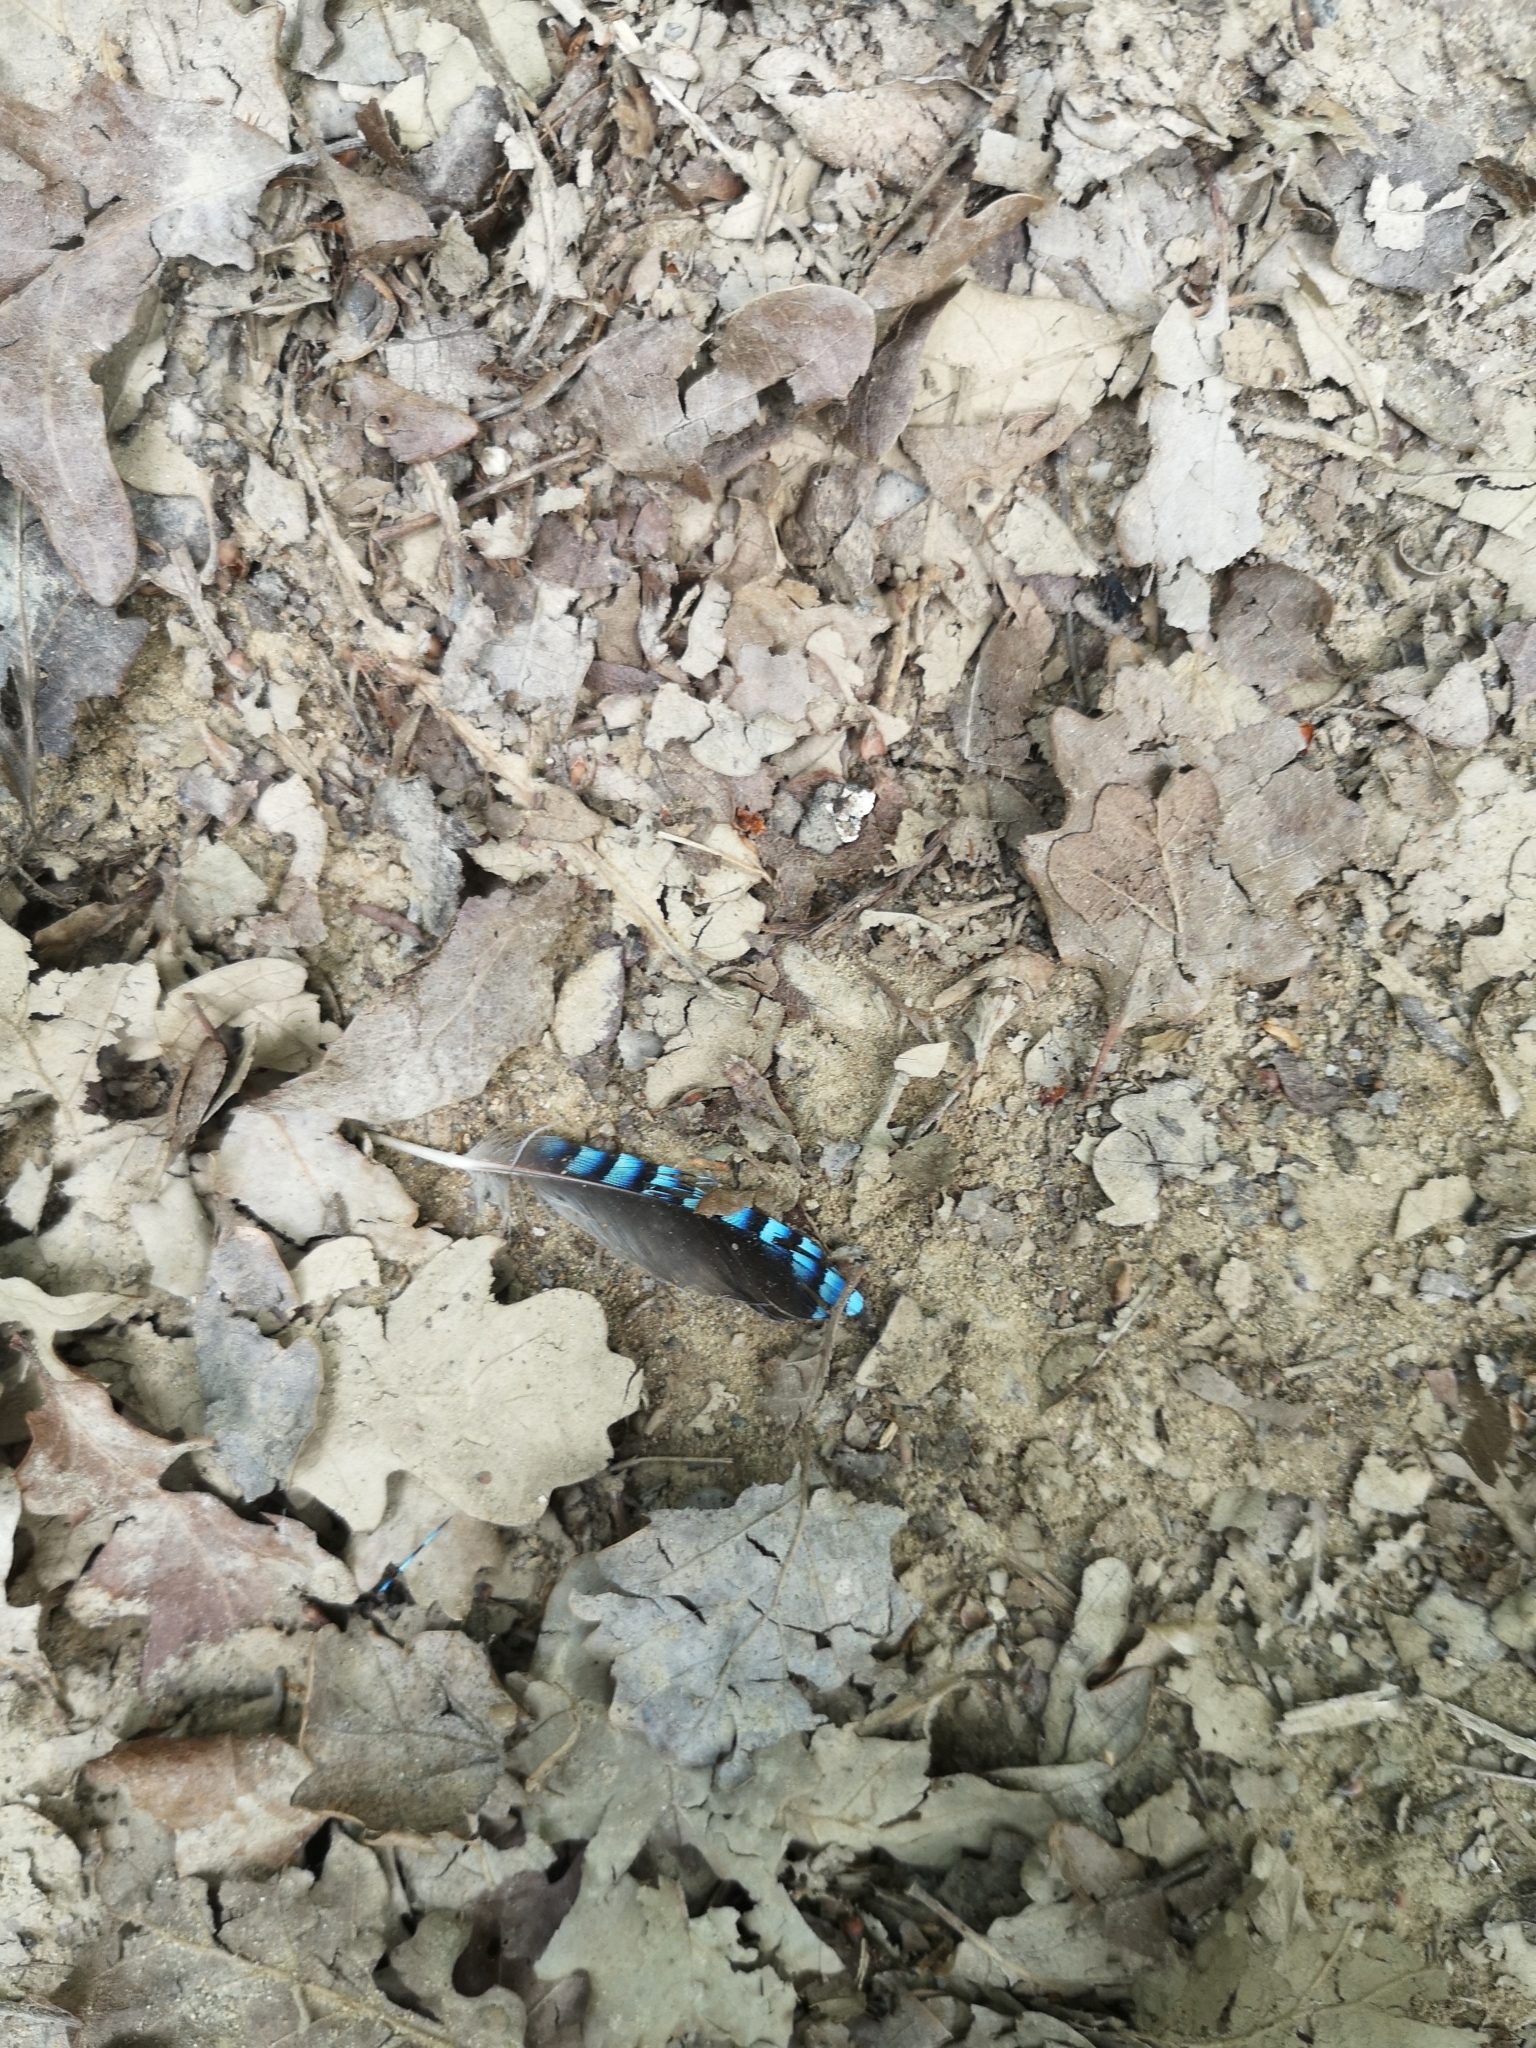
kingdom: Animalia
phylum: Chordata
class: Aves
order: Passeriformes
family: Corvidae
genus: Garrulus
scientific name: Garrulus glandarius
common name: Eurasian jay
